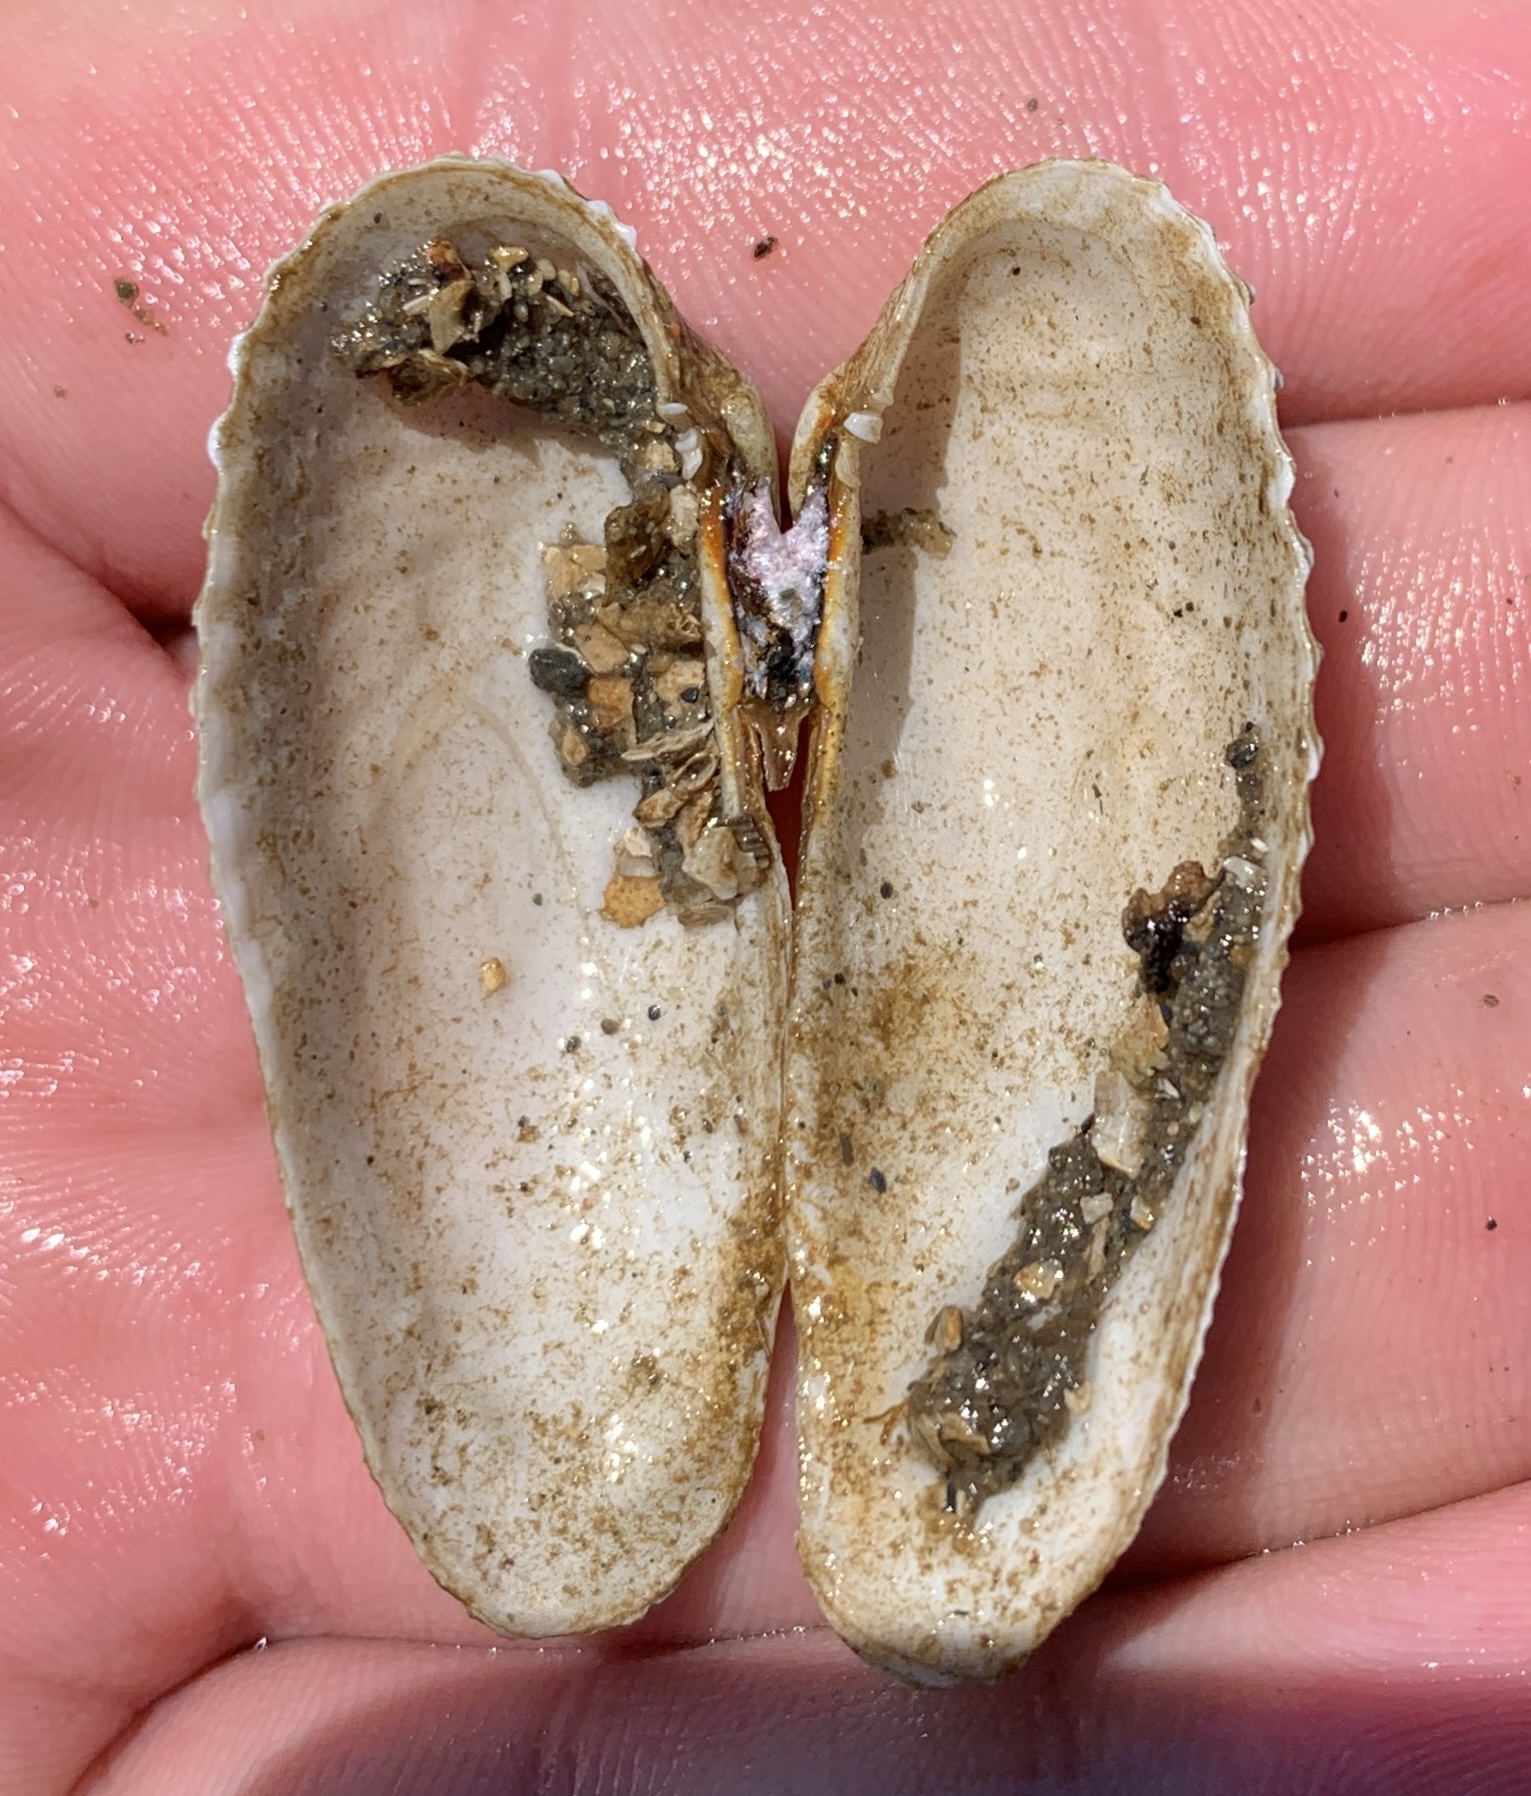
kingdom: Animalia
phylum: Mollusca
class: Bivalvia
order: Venerida
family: Veneridae
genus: Petricolaria
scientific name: Petricolaria pholadiformis
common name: American piddock
